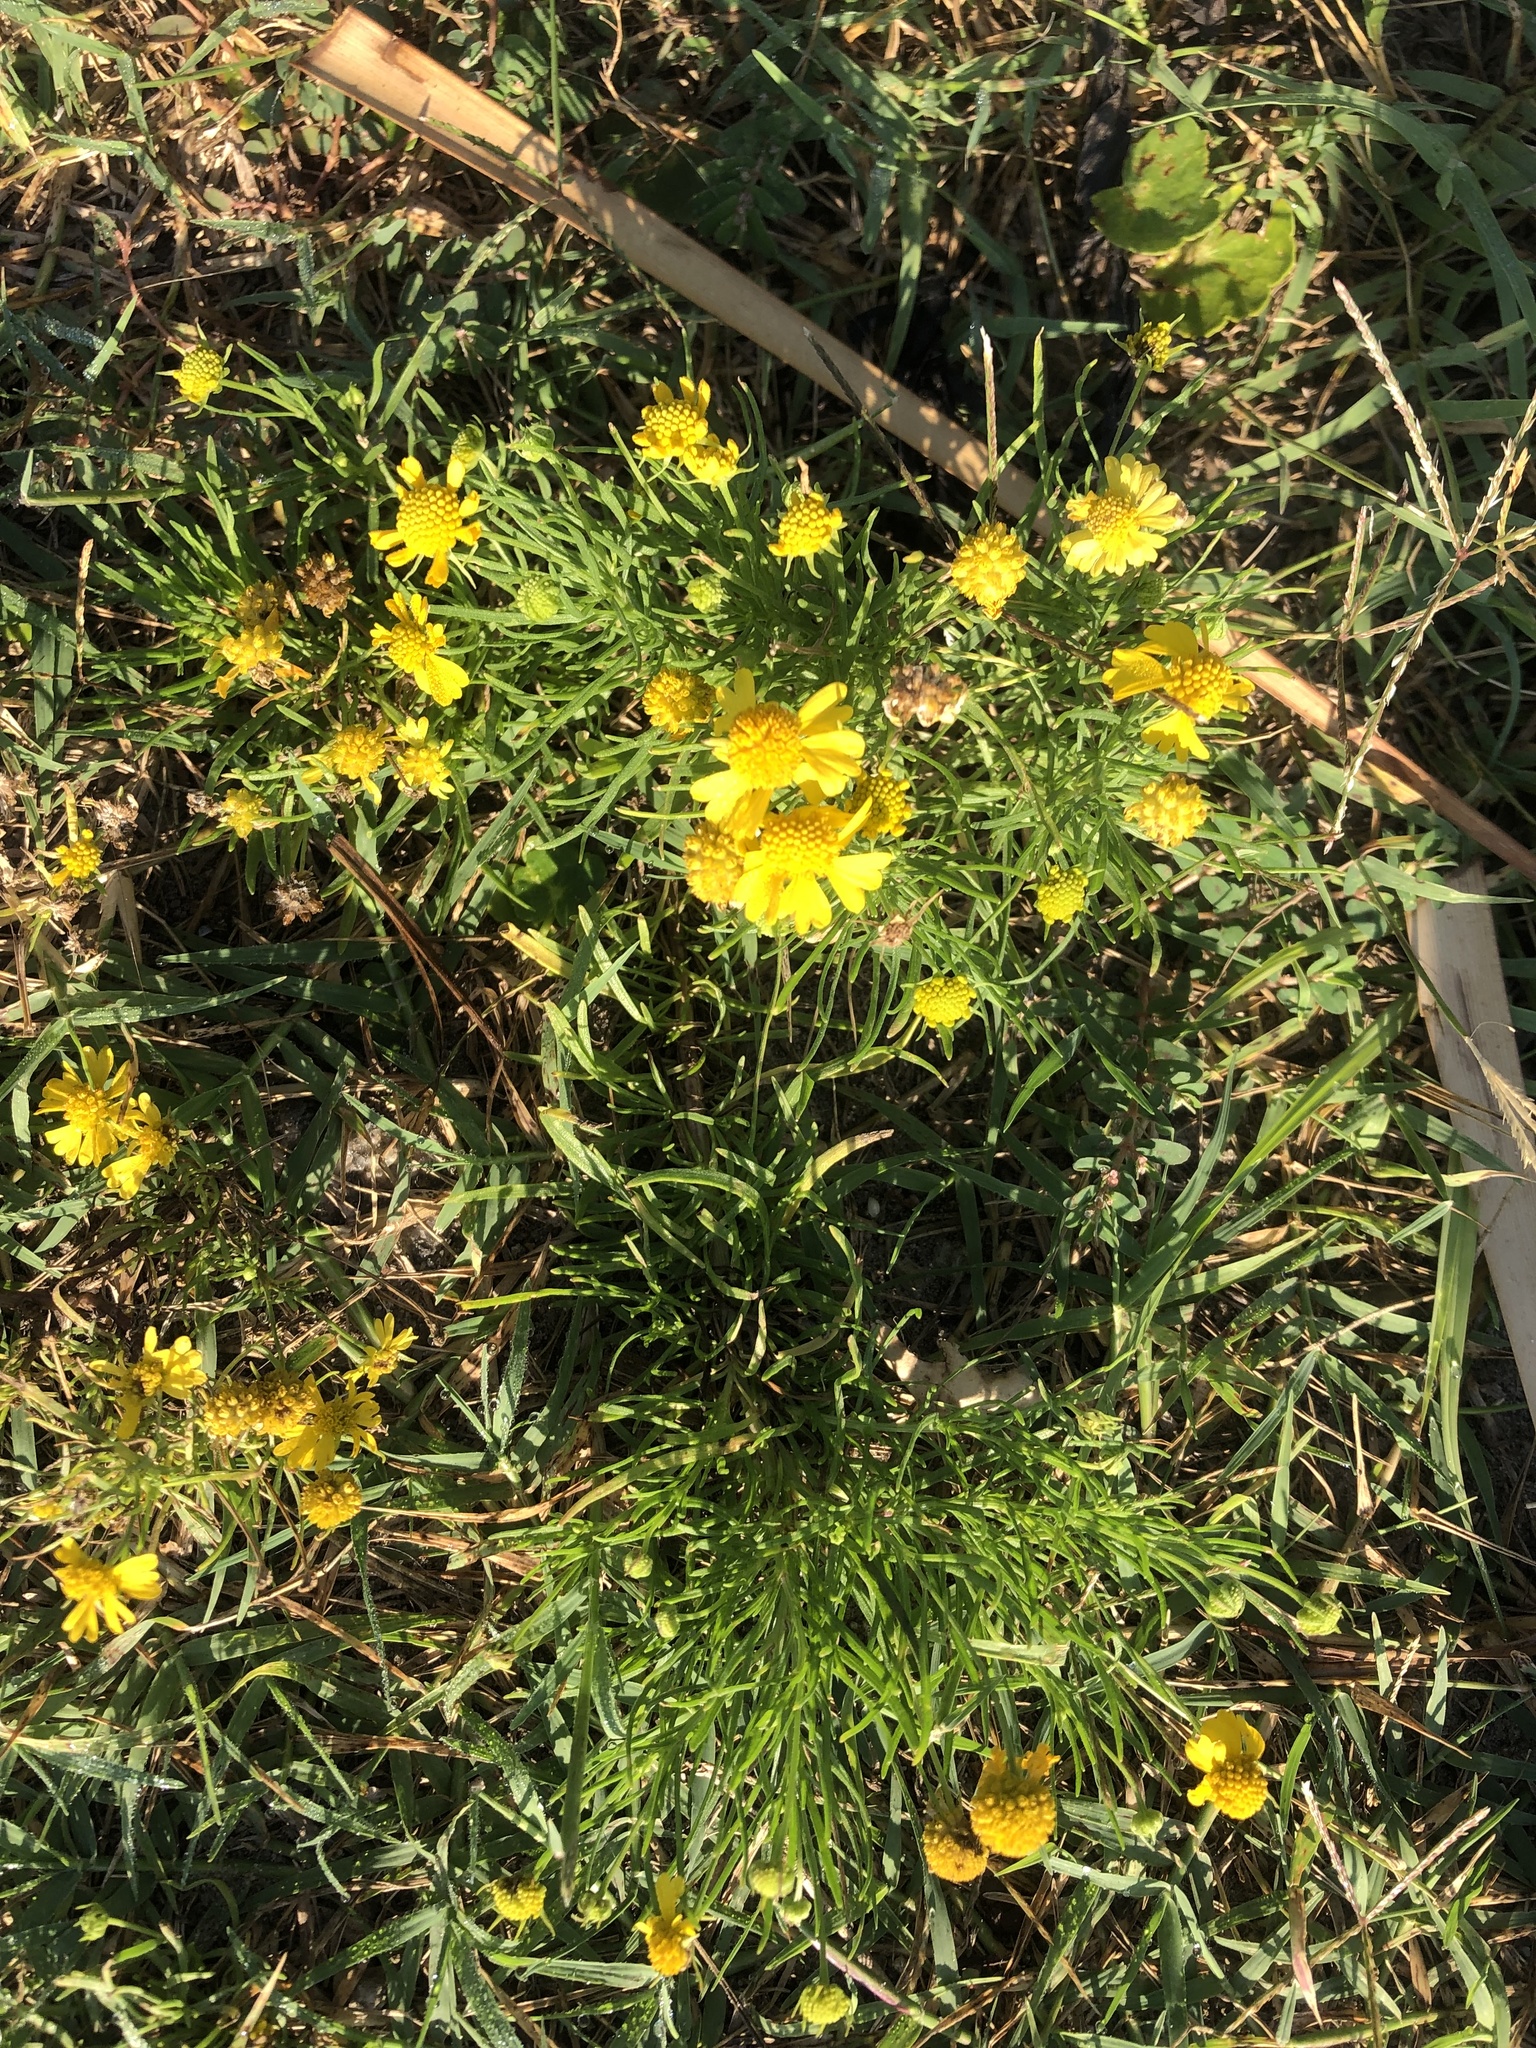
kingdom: Plantae
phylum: Tracheophyta
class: Magnoliopsida
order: Asterales
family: Asteraceae
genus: Helenium
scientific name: Helenium amarum
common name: Bitter sneezeweed
